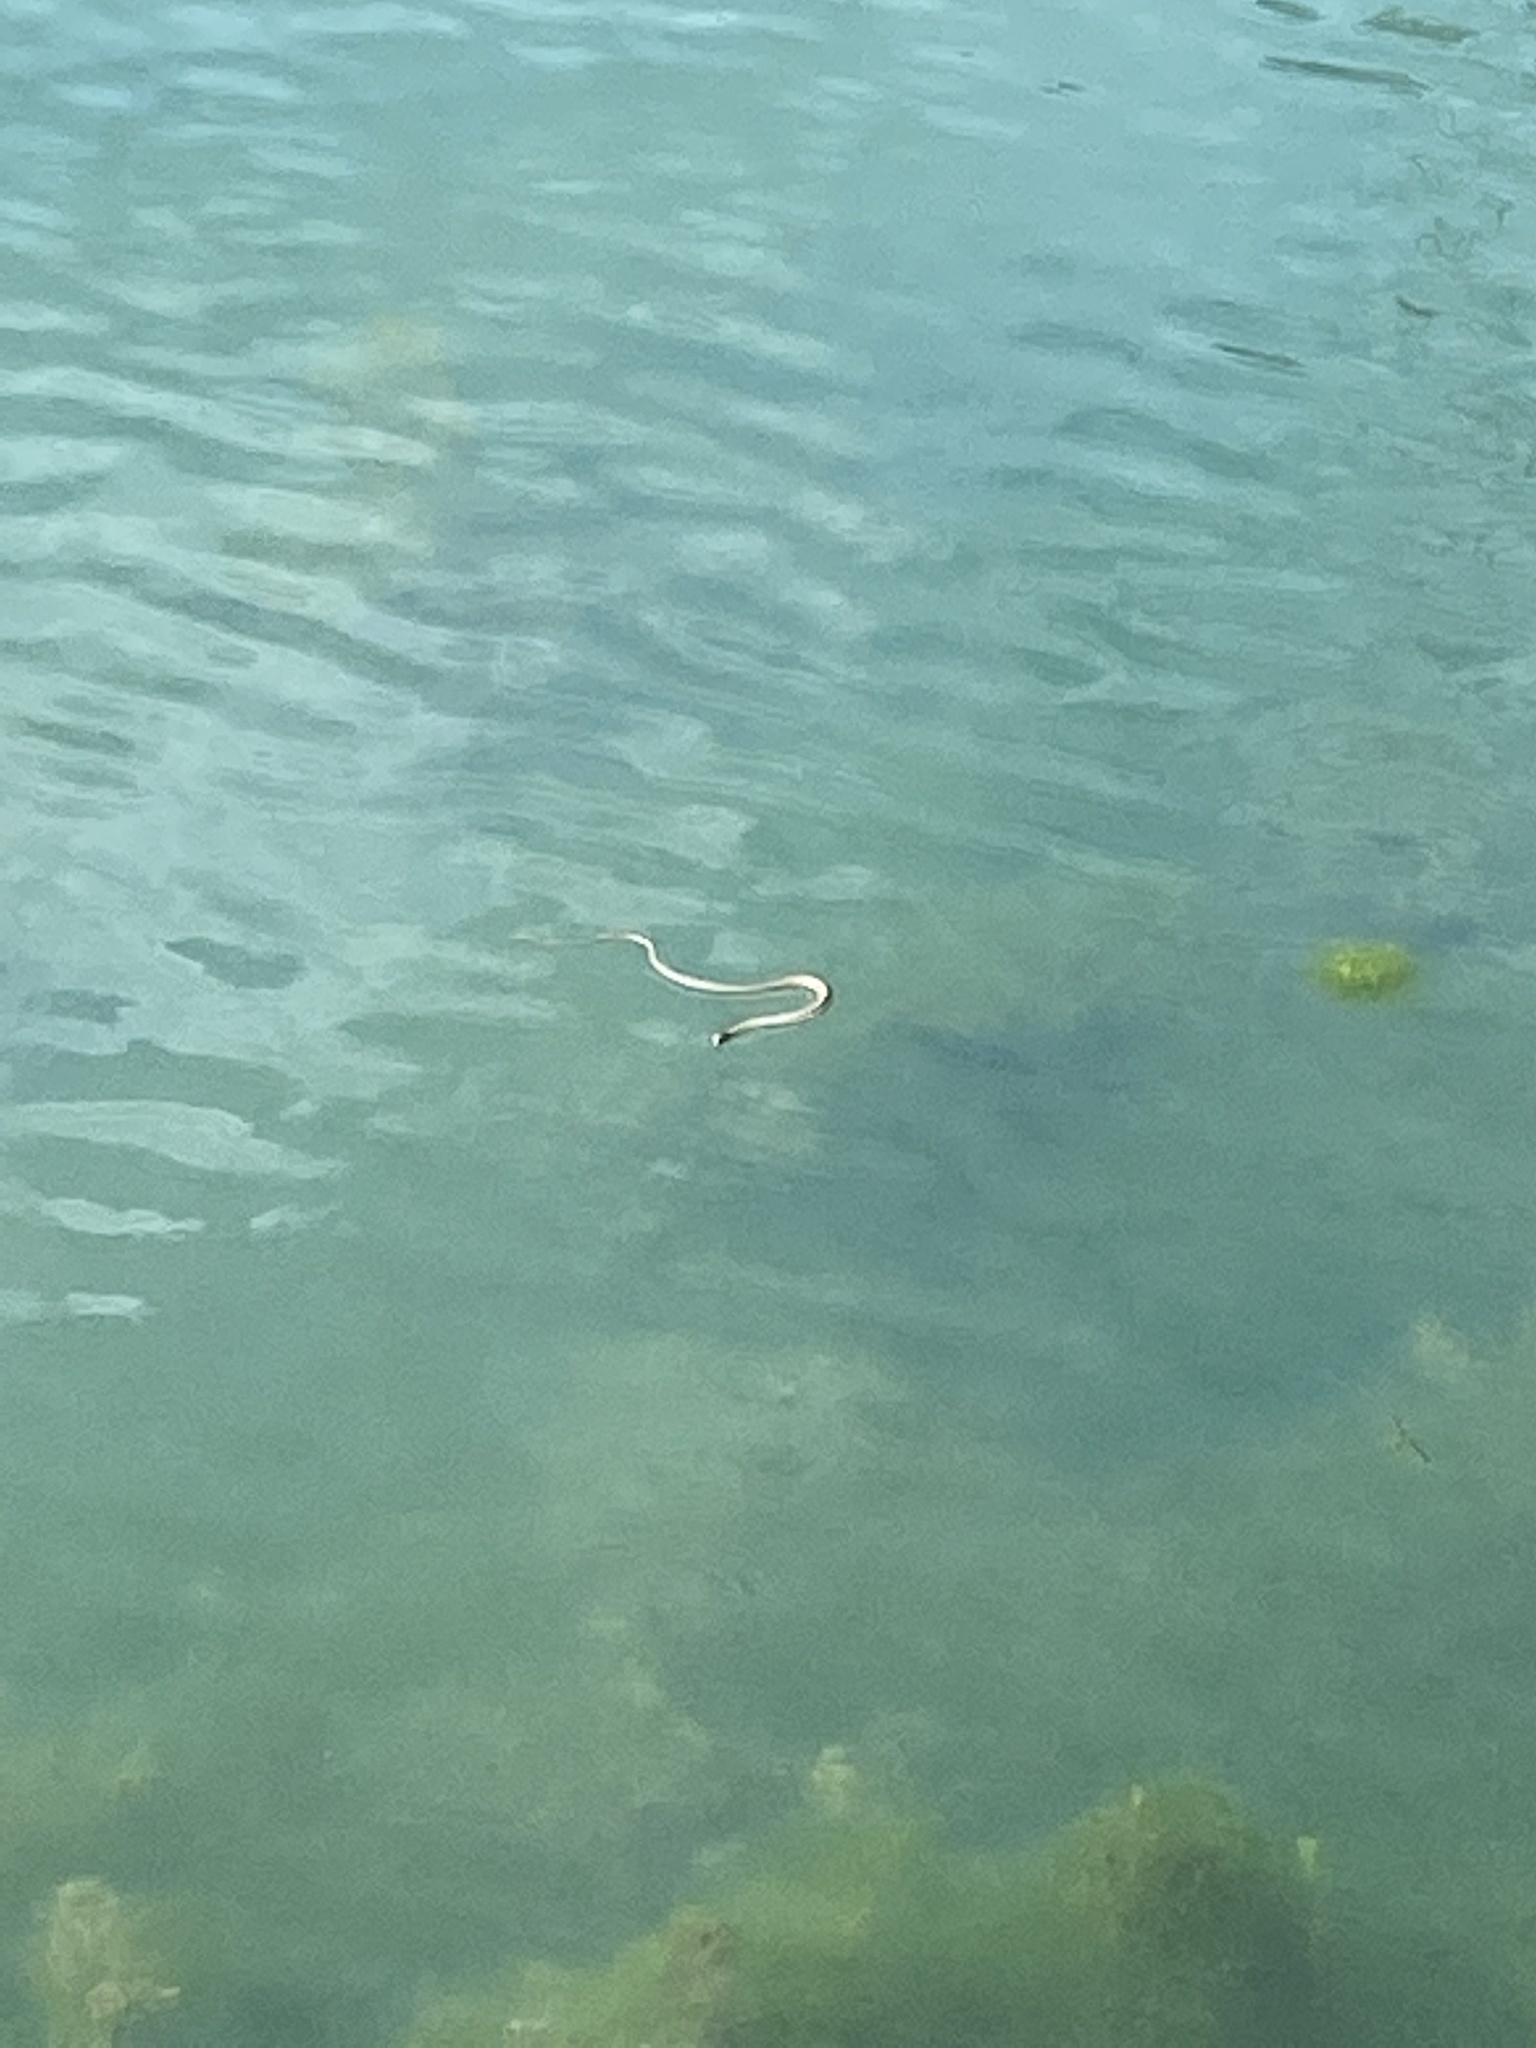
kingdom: Animalia
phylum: Chordata
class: Squamata
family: Colubridae
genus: Thamnophis
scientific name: Thamnophis elegans
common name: Western terrestrial garter snake
